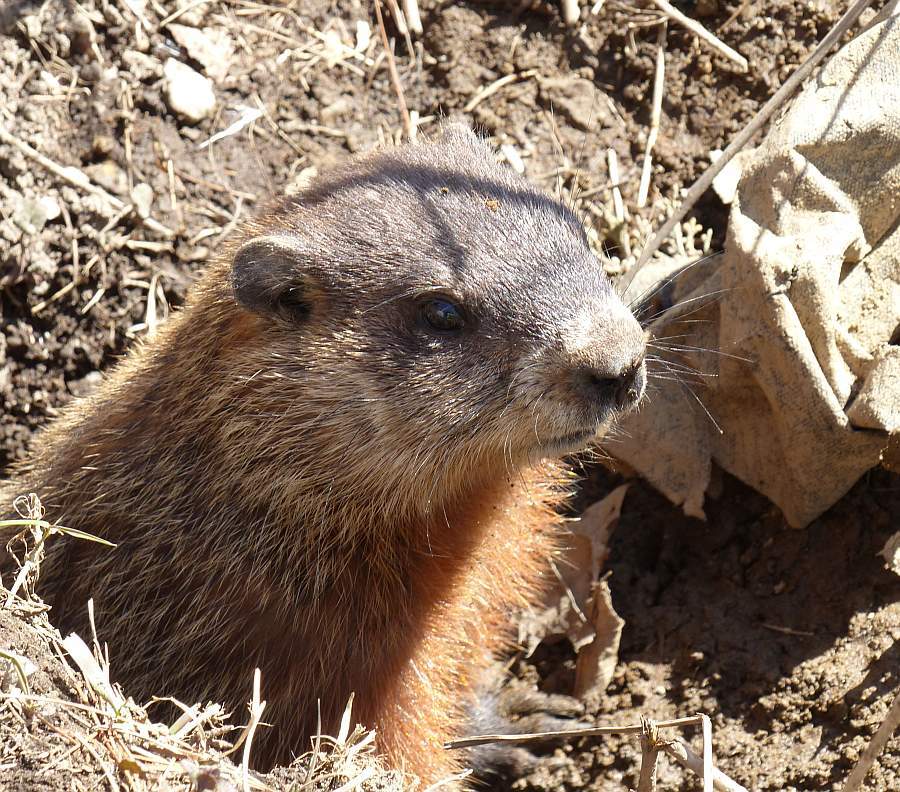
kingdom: Animalia
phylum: Chordata
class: Mammalia
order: Rodentia
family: Sciuridae
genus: Marmota
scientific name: Marmota monax
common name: Groundhog
